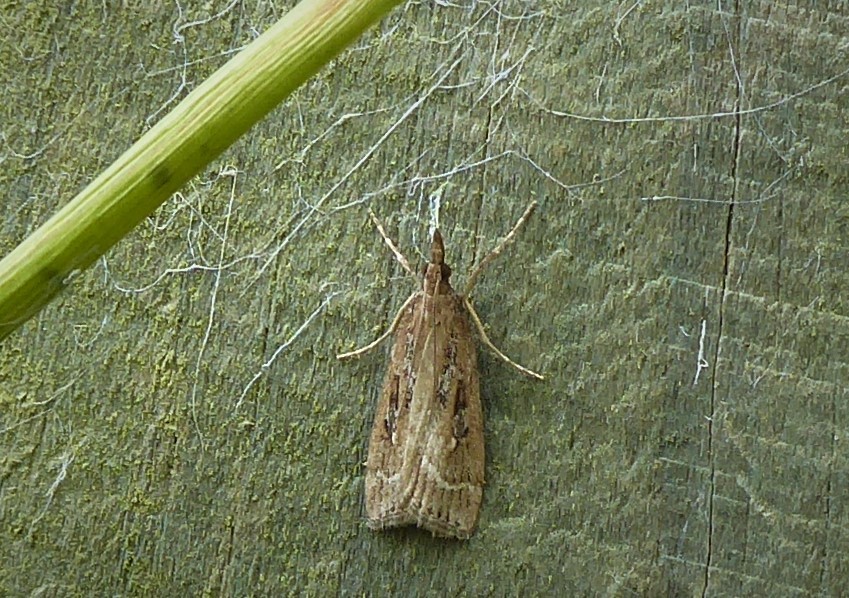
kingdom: Animalia
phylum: Arthropoda
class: Insecta
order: Lepidoptera
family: Crambidae
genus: Eudonia
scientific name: Eudonia octophora
